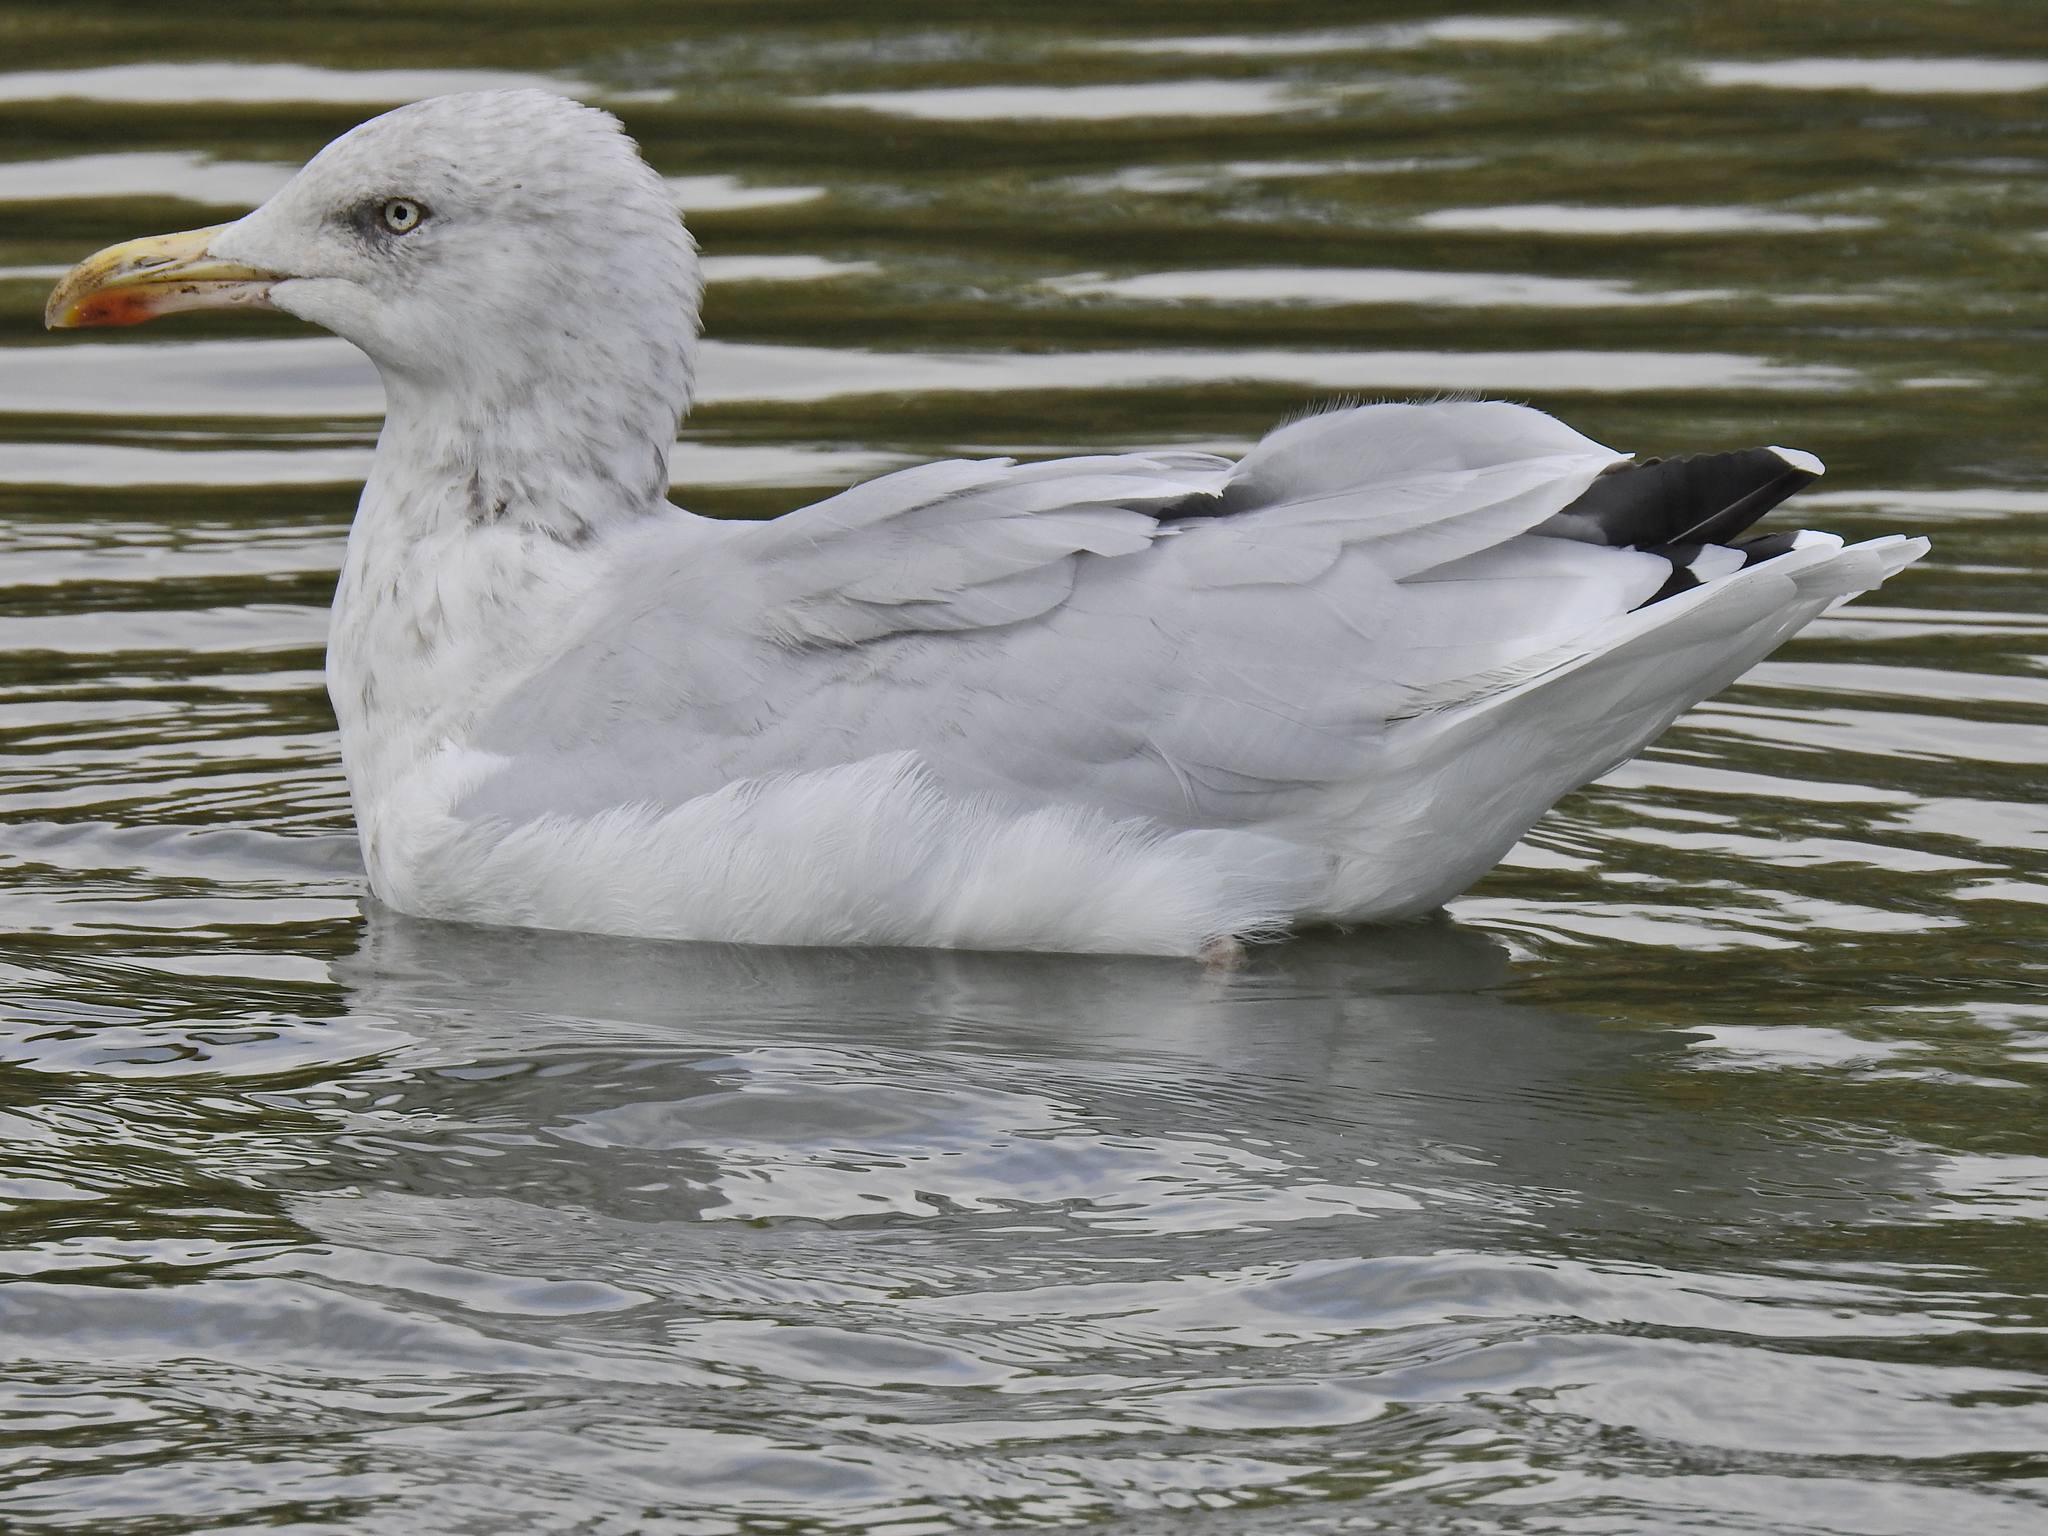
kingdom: Animalia
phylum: Chordata
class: Aves
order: Charadriiformes
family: Laridae
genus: Larus
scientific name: Larus argentatus
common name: Herring gull
